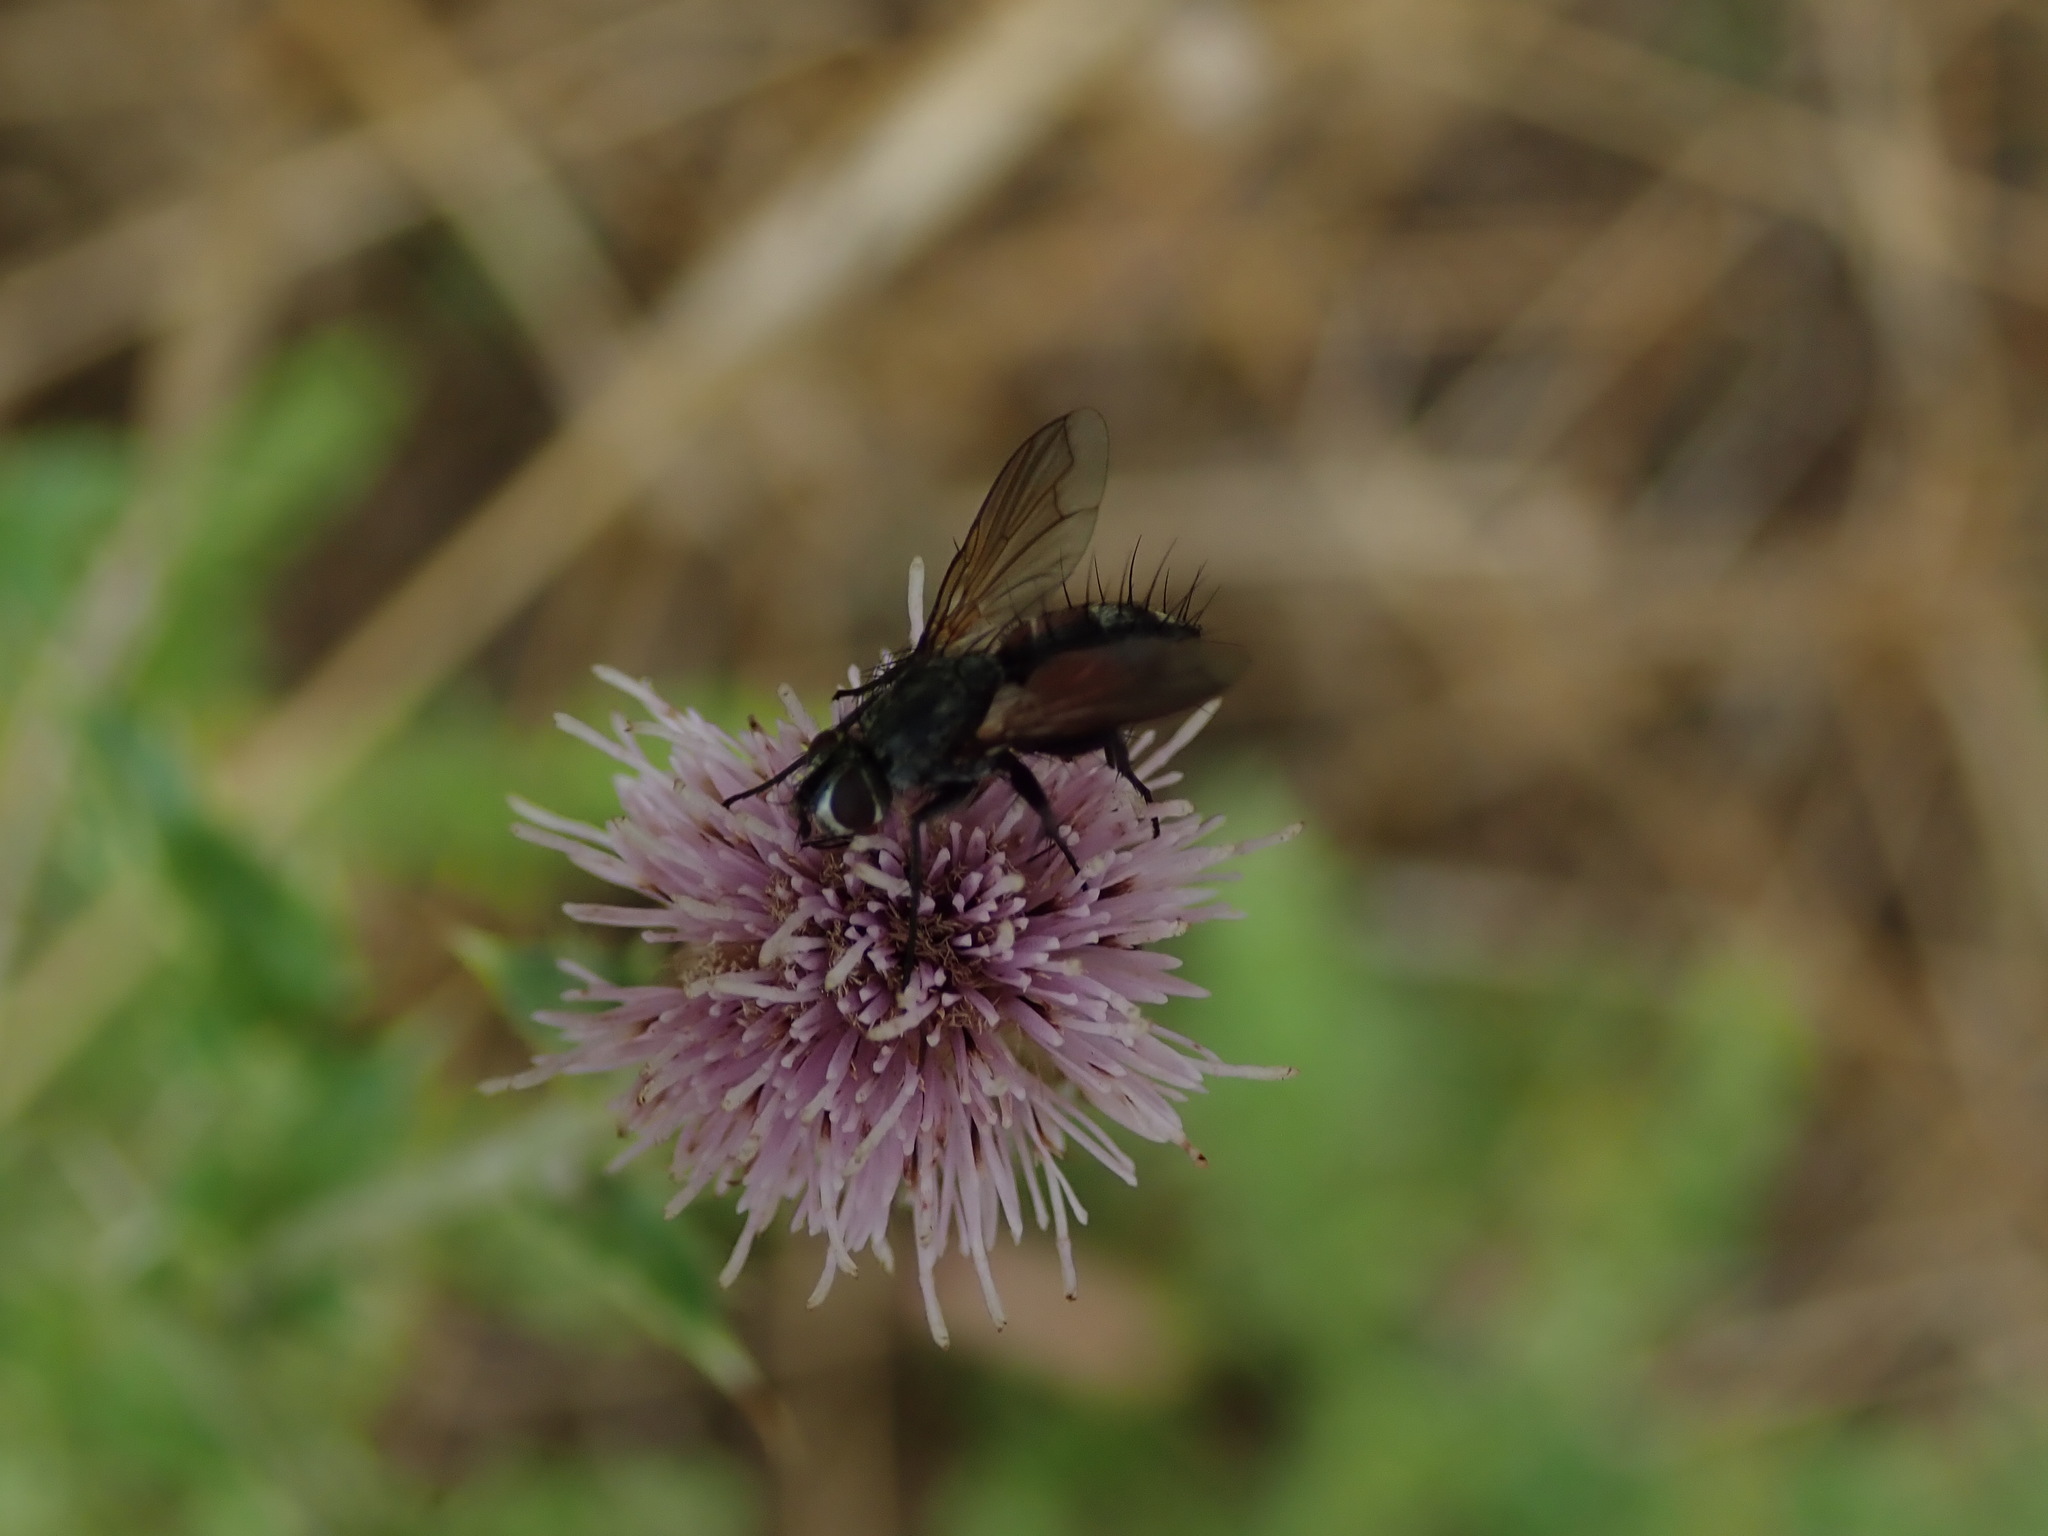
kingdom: Animalia
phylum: Arthropoda
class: Insecta
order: Diptera
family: Tachinidae
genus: Eriothrix
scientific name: Eriothrix rufomaculatus
